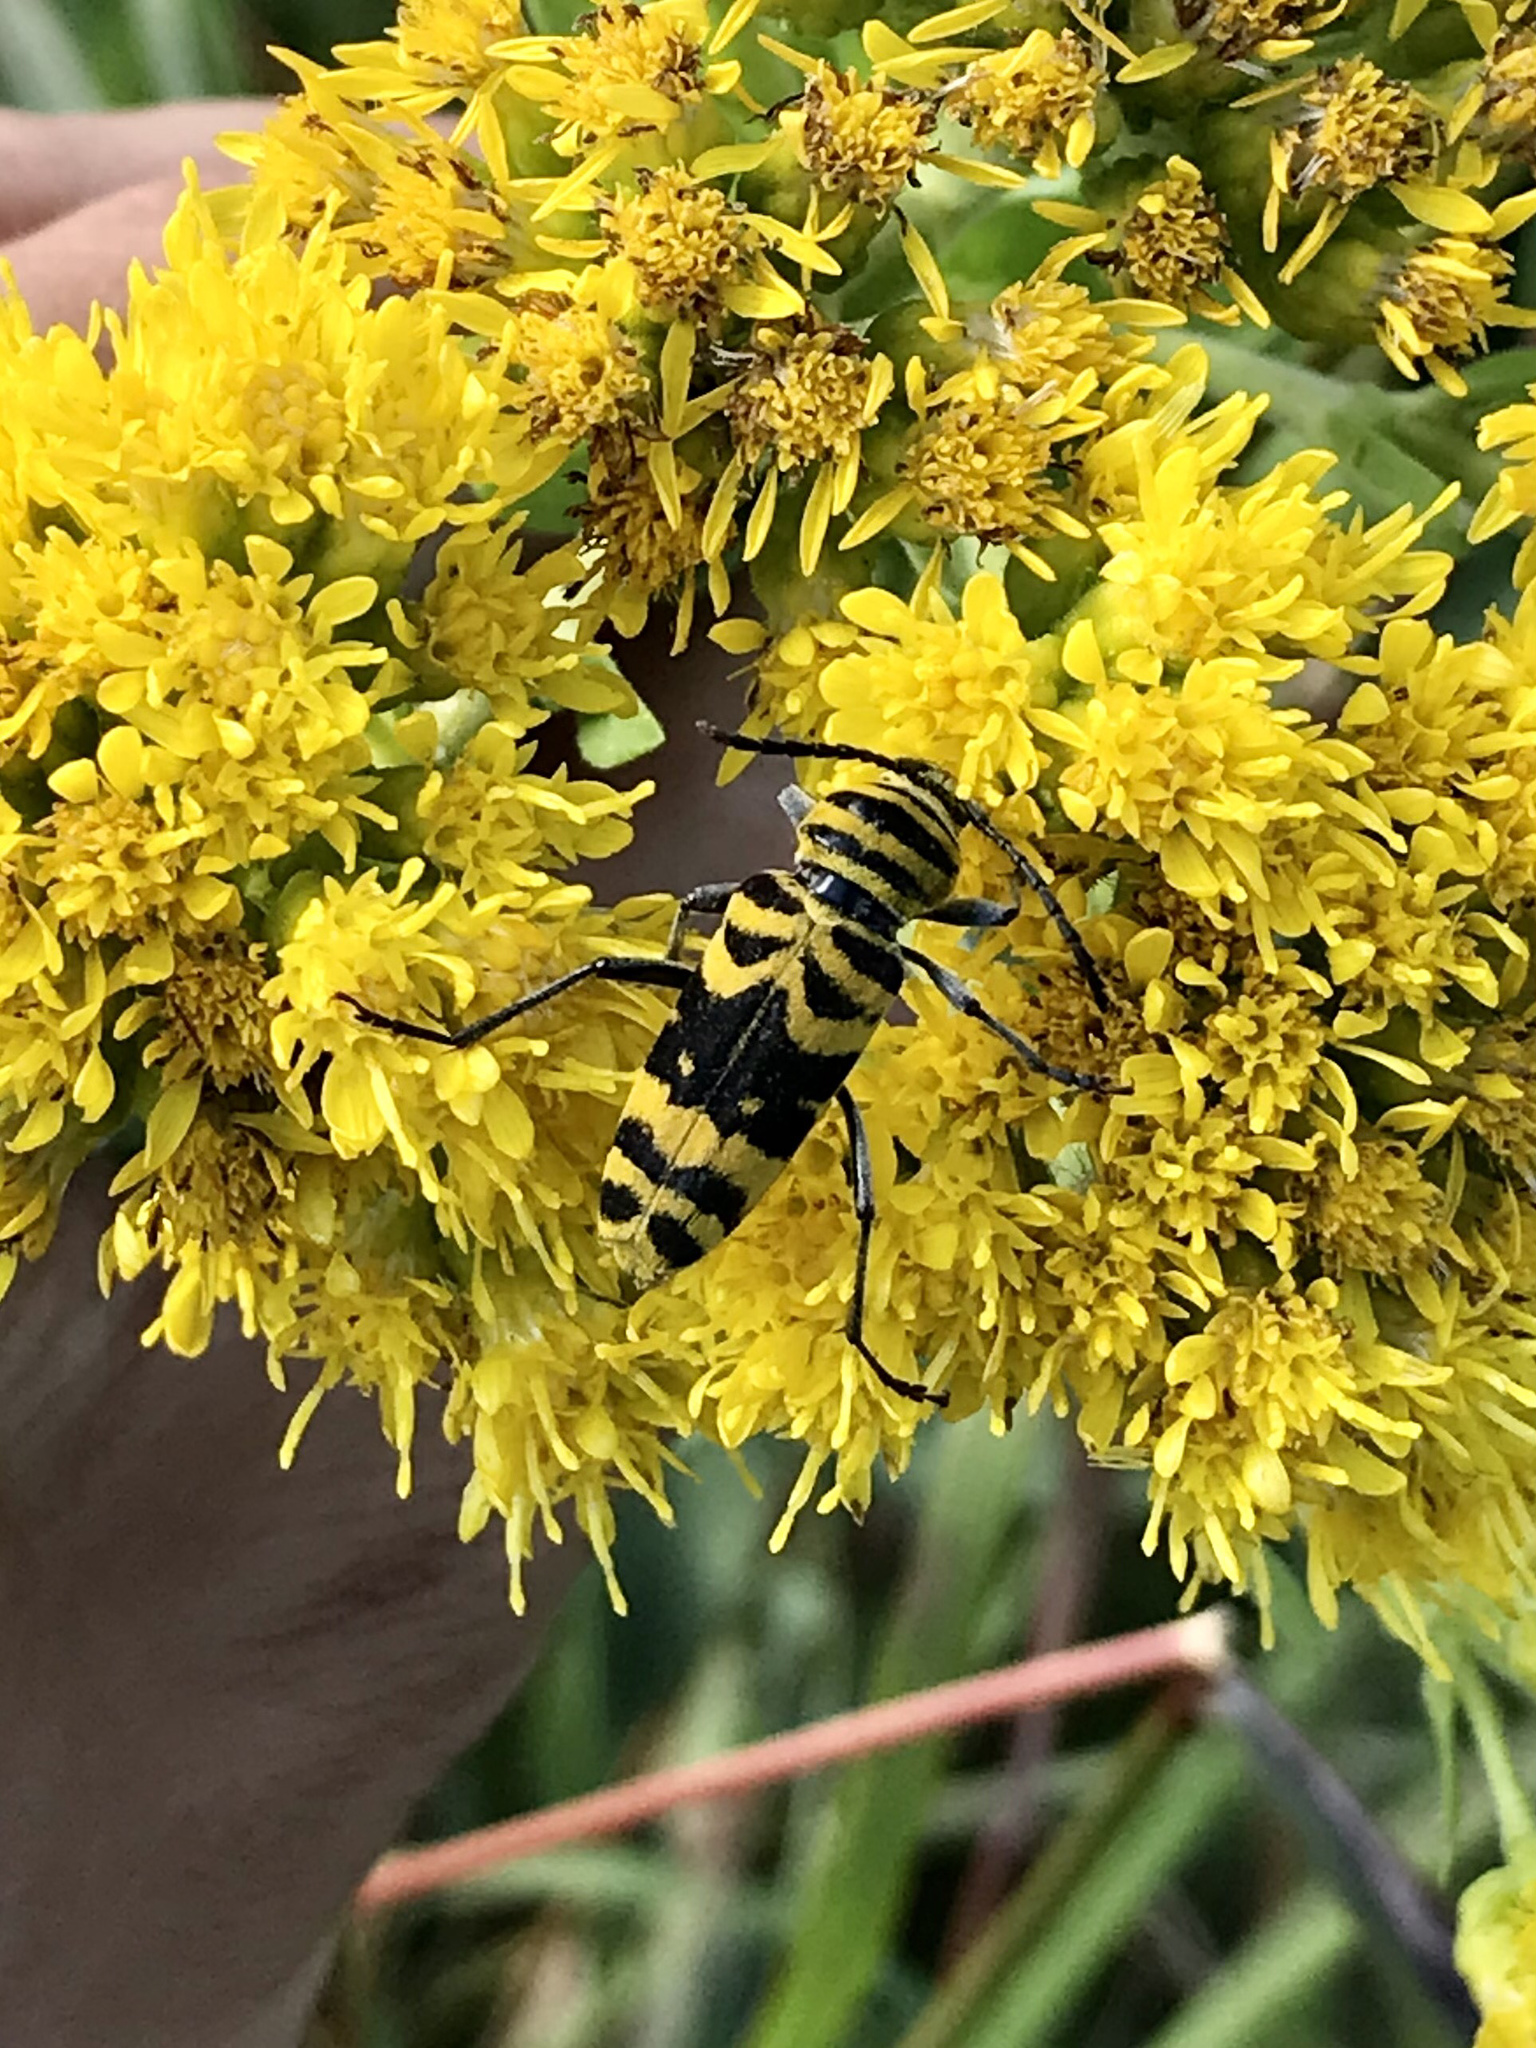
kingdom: Animalia
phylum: Arthropoda
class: Insecta
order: Coleoptera
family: Cerambycidae
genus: Megacyllene
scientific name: Megacyllene decora
